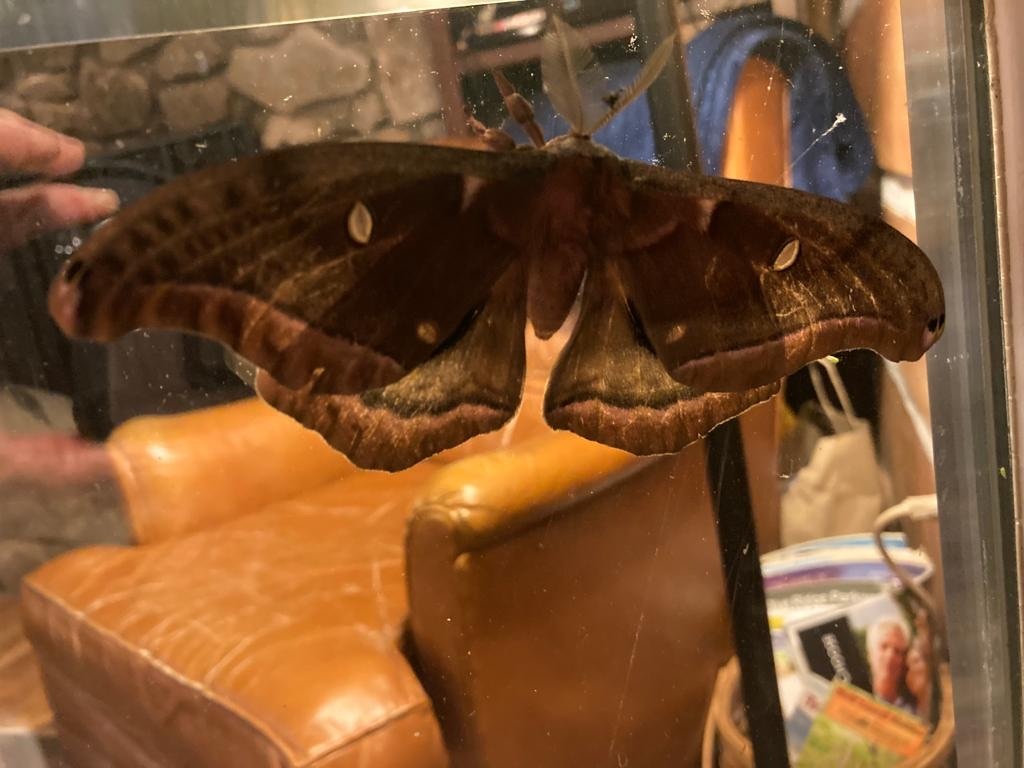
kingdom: Animalia
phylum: Arthropoda
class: Insecta
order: Lepidoptera
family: Saturniidae
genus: Antheraea
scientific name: Antheraea polyphemus
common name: Polyphemus moth
